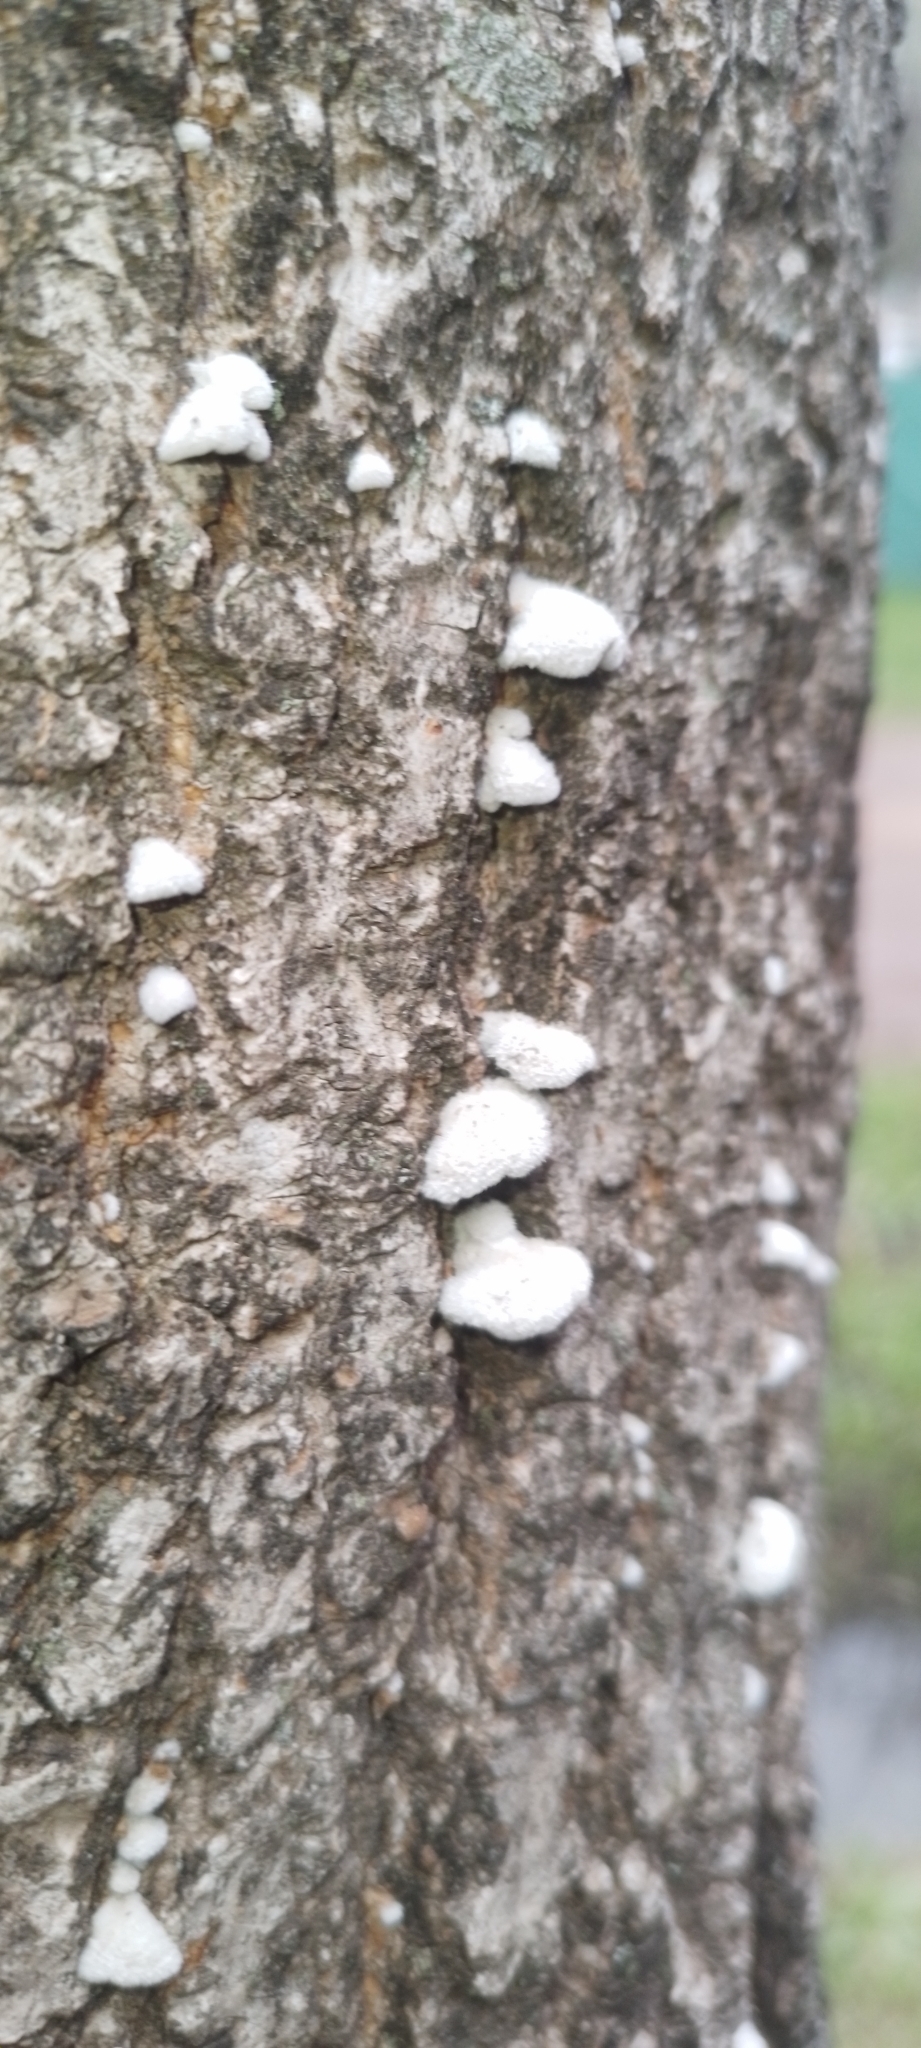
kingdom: Fungi
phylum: Basidiomycota
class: Agaricomycetes
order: Agaricales
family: Schizophyllaceae
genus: Schizophyllum
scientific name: Schizophyllum commune
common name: Common porecrust
